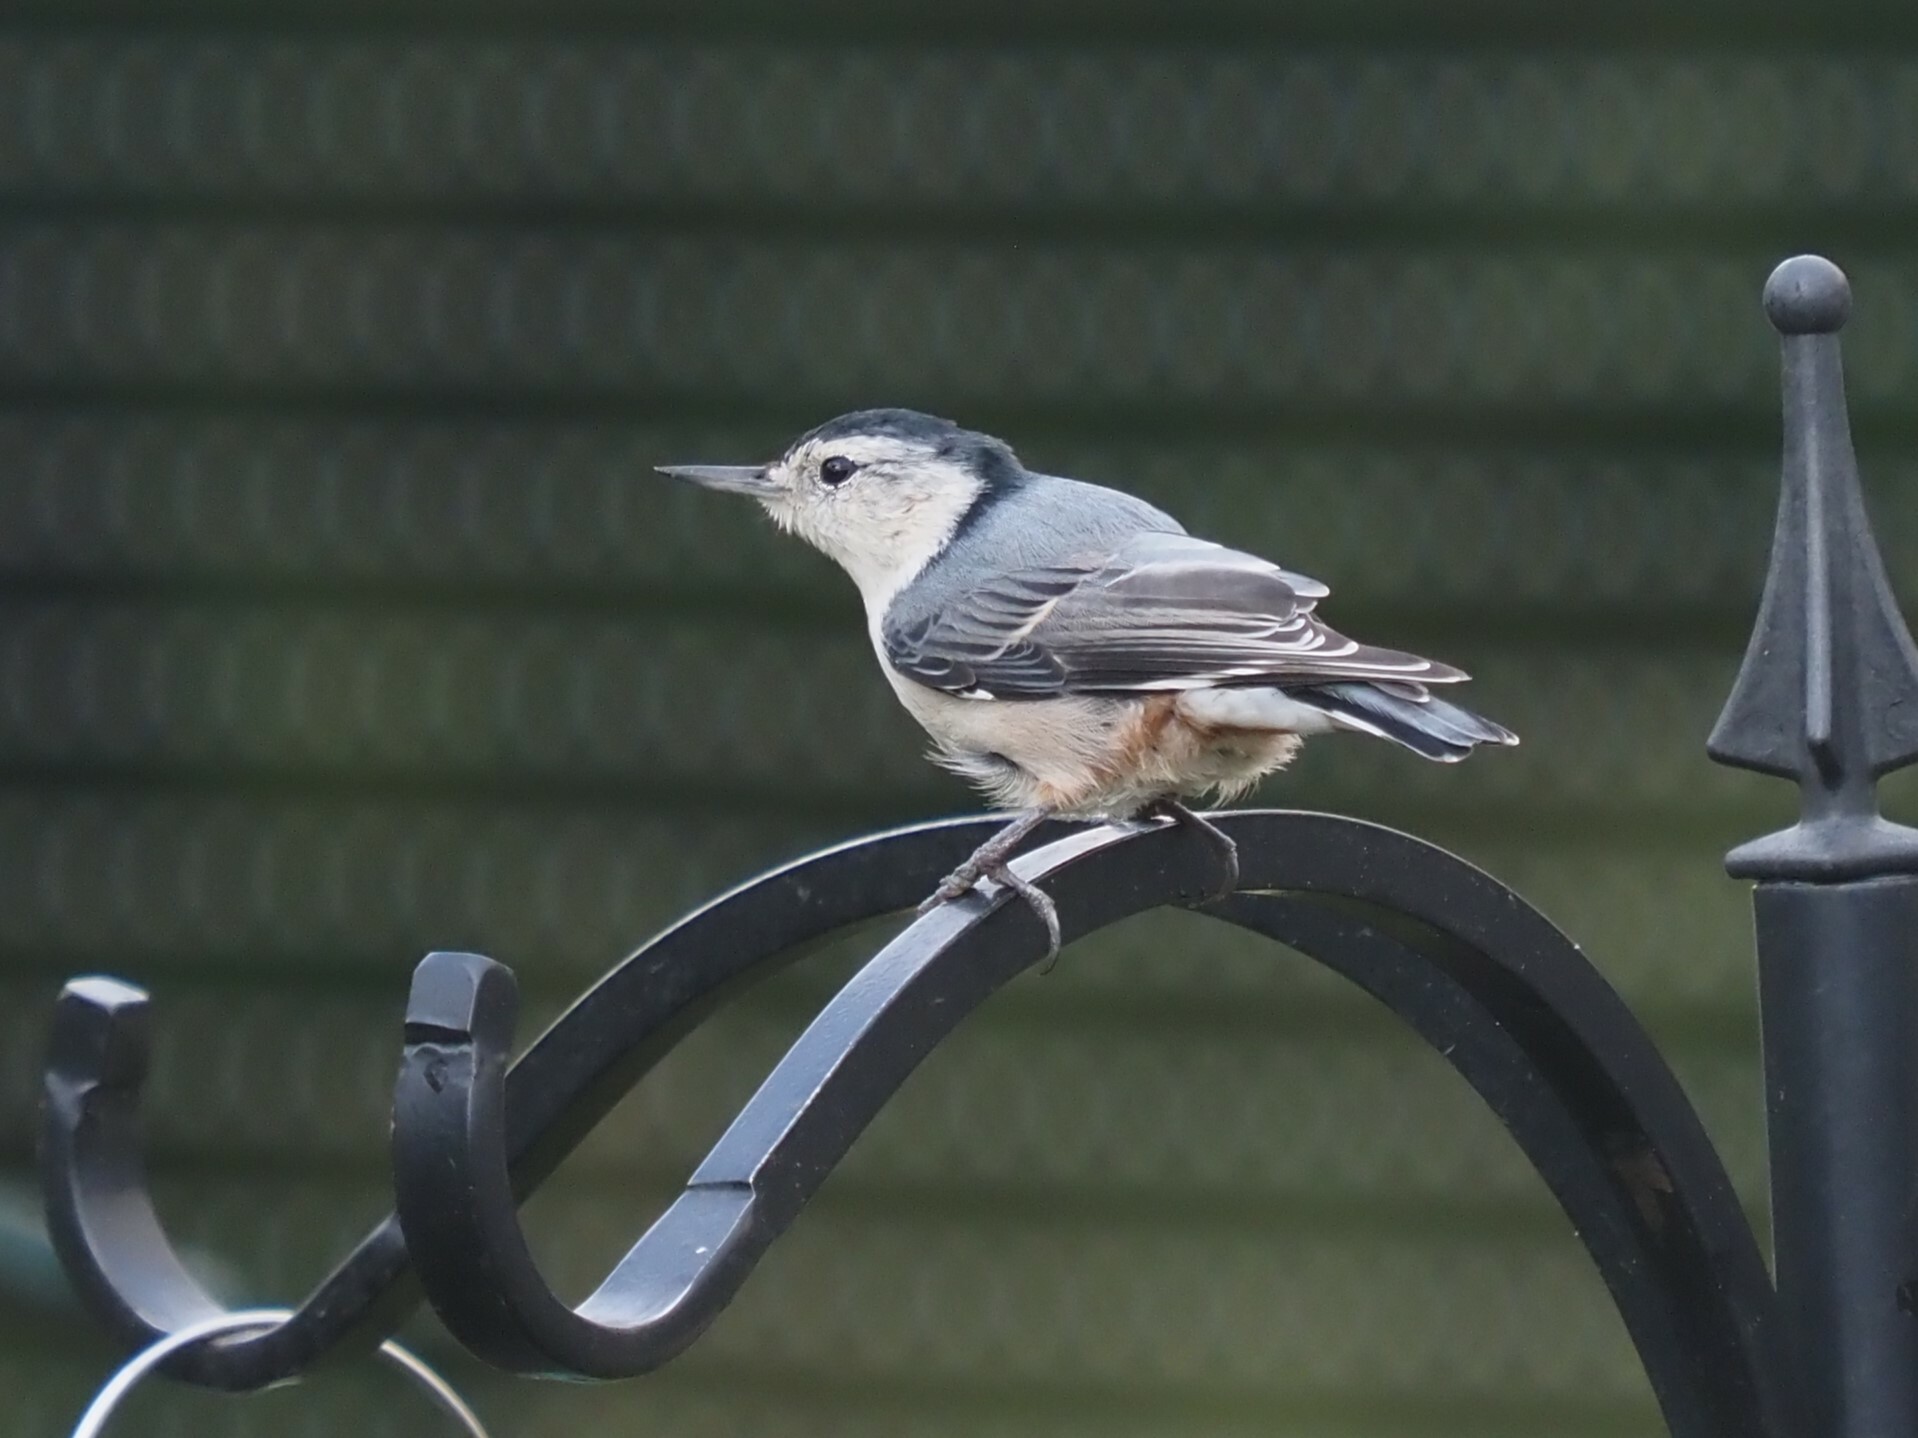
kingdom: Animalia
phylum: Chordata
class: Aves
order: Passeriformes
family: Sittidae
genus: Sitta
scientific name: Sitta carolinensis
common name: White-breasted nuthatch
